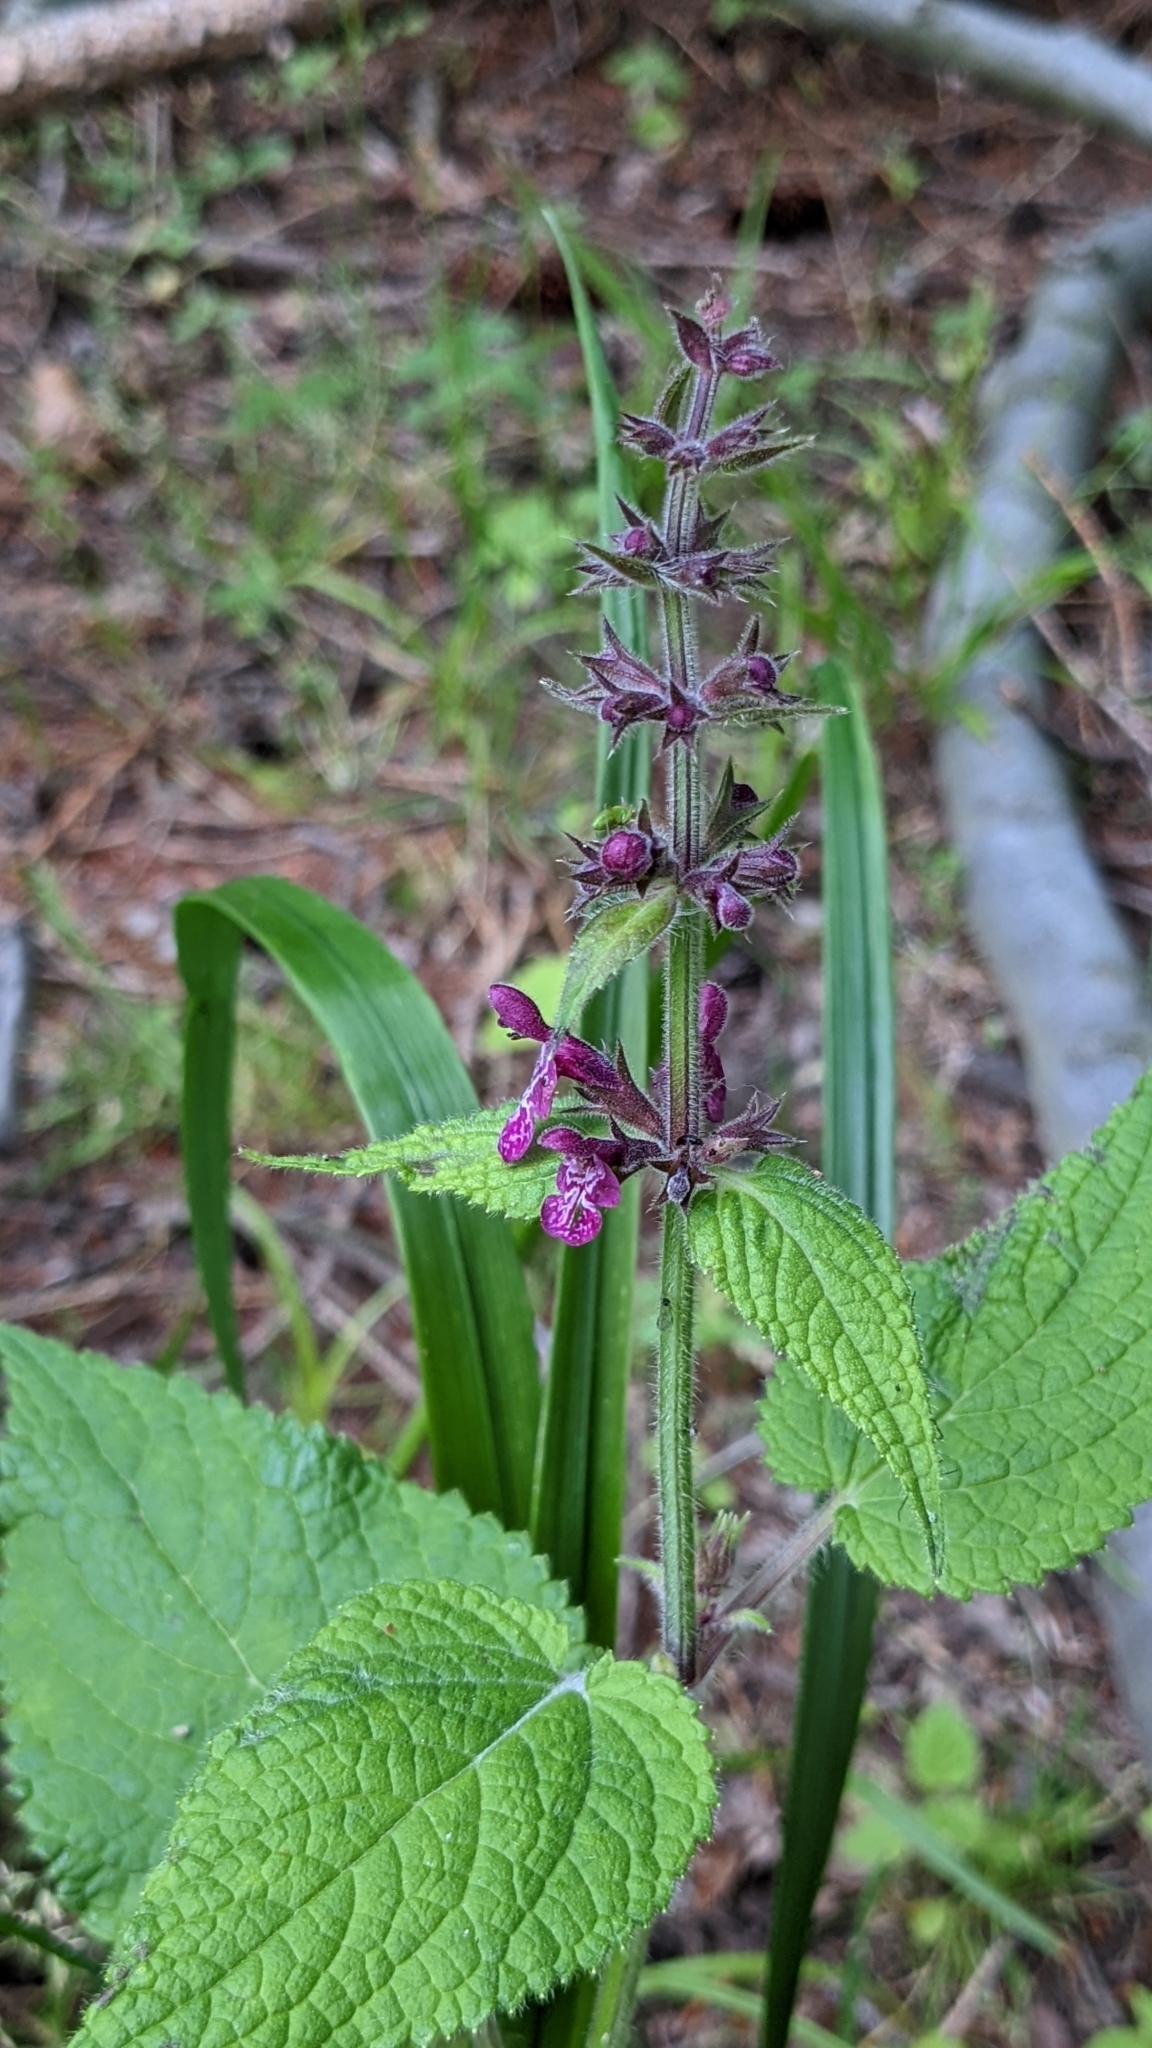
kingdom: Plantae
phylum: Tracheophyta
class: Magnoliopsida
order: Lamiales
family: Lamiaceae
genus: Stachys
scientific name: Stachys sylvatica
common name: Hedge woundwort
